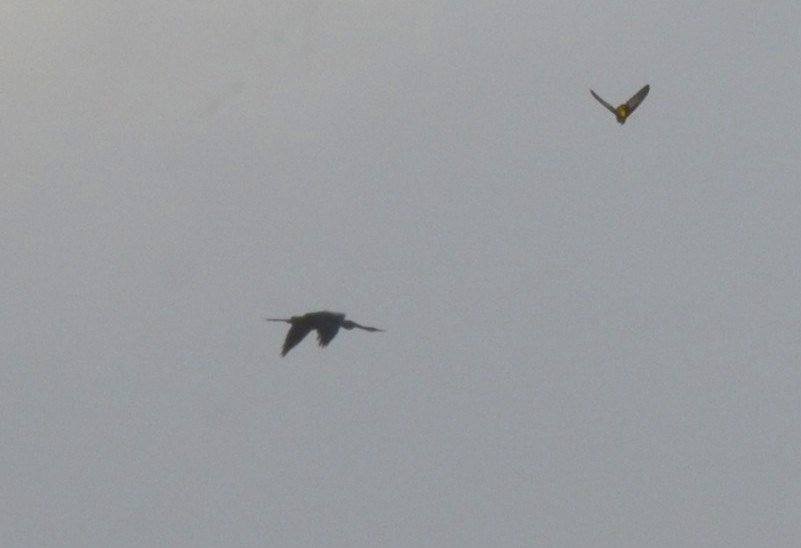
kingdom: Animalia
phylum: Chordata
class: Aves
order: Suliformes
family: Anhingidae
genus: Anhinga
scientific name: Anhinga melanogaster
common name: Oriental darter
